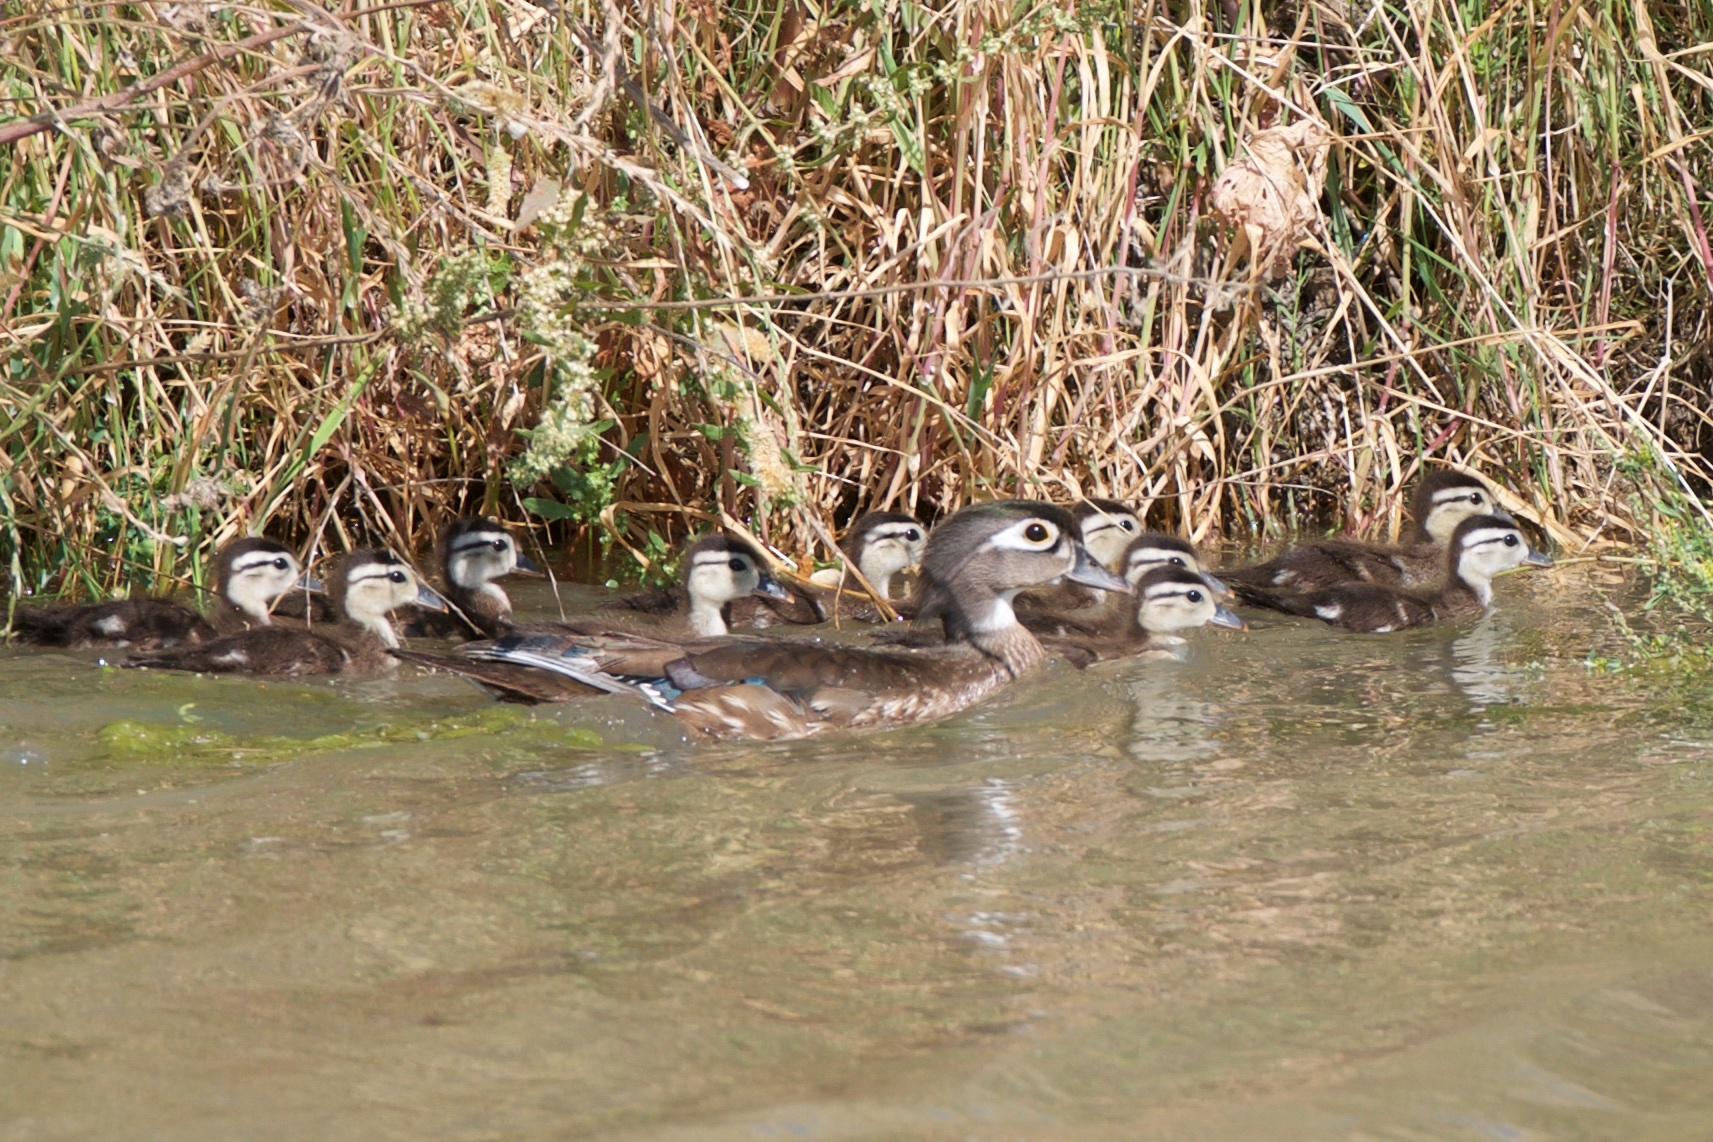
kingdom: Animalia
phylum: Chordata
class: Aves
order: Anseriformes
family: Anatidae
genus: Aix
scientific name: Aix sponsa
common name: Wood duck
